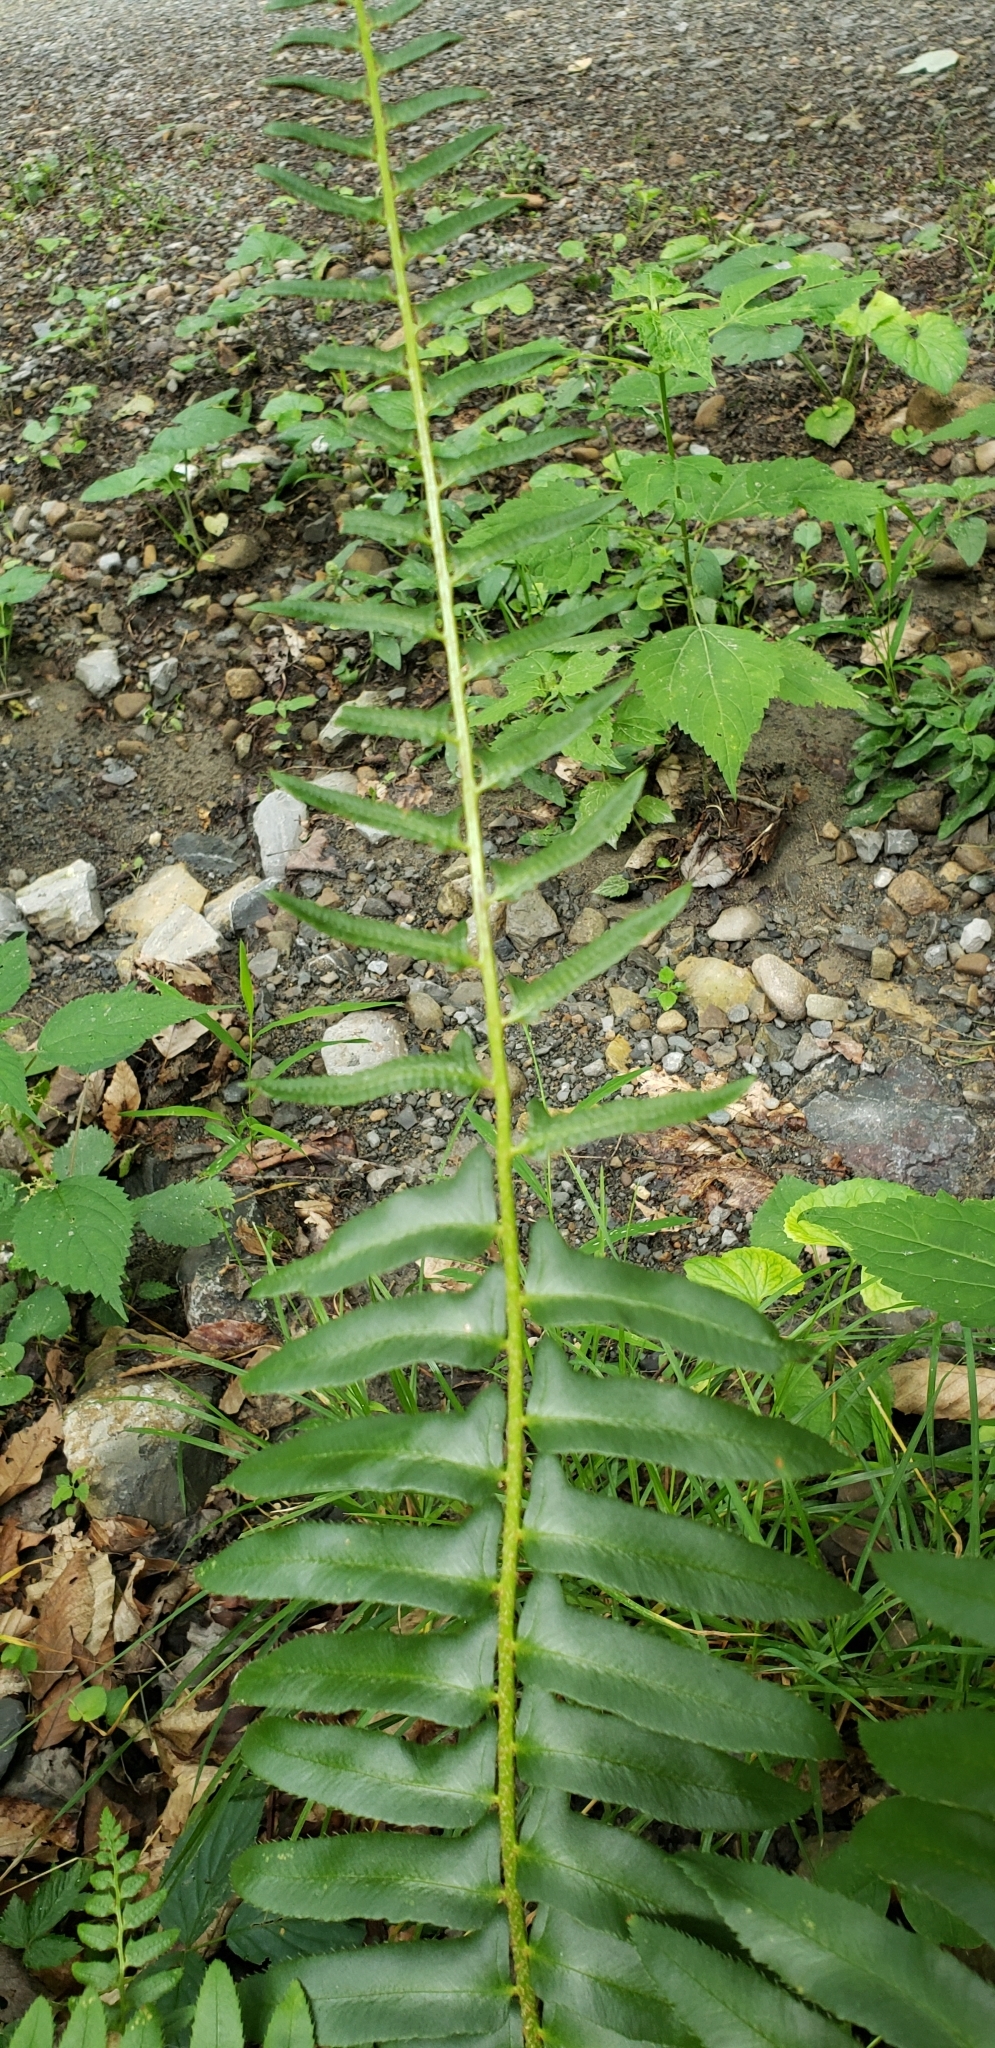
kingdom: Plantae
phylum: Tracheophyta
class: Polypodiopsida
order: Polypodiales
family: Dryopteridaceae
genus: Polystichum
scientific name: Polystichum acrostichoides
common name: Christmas fern
